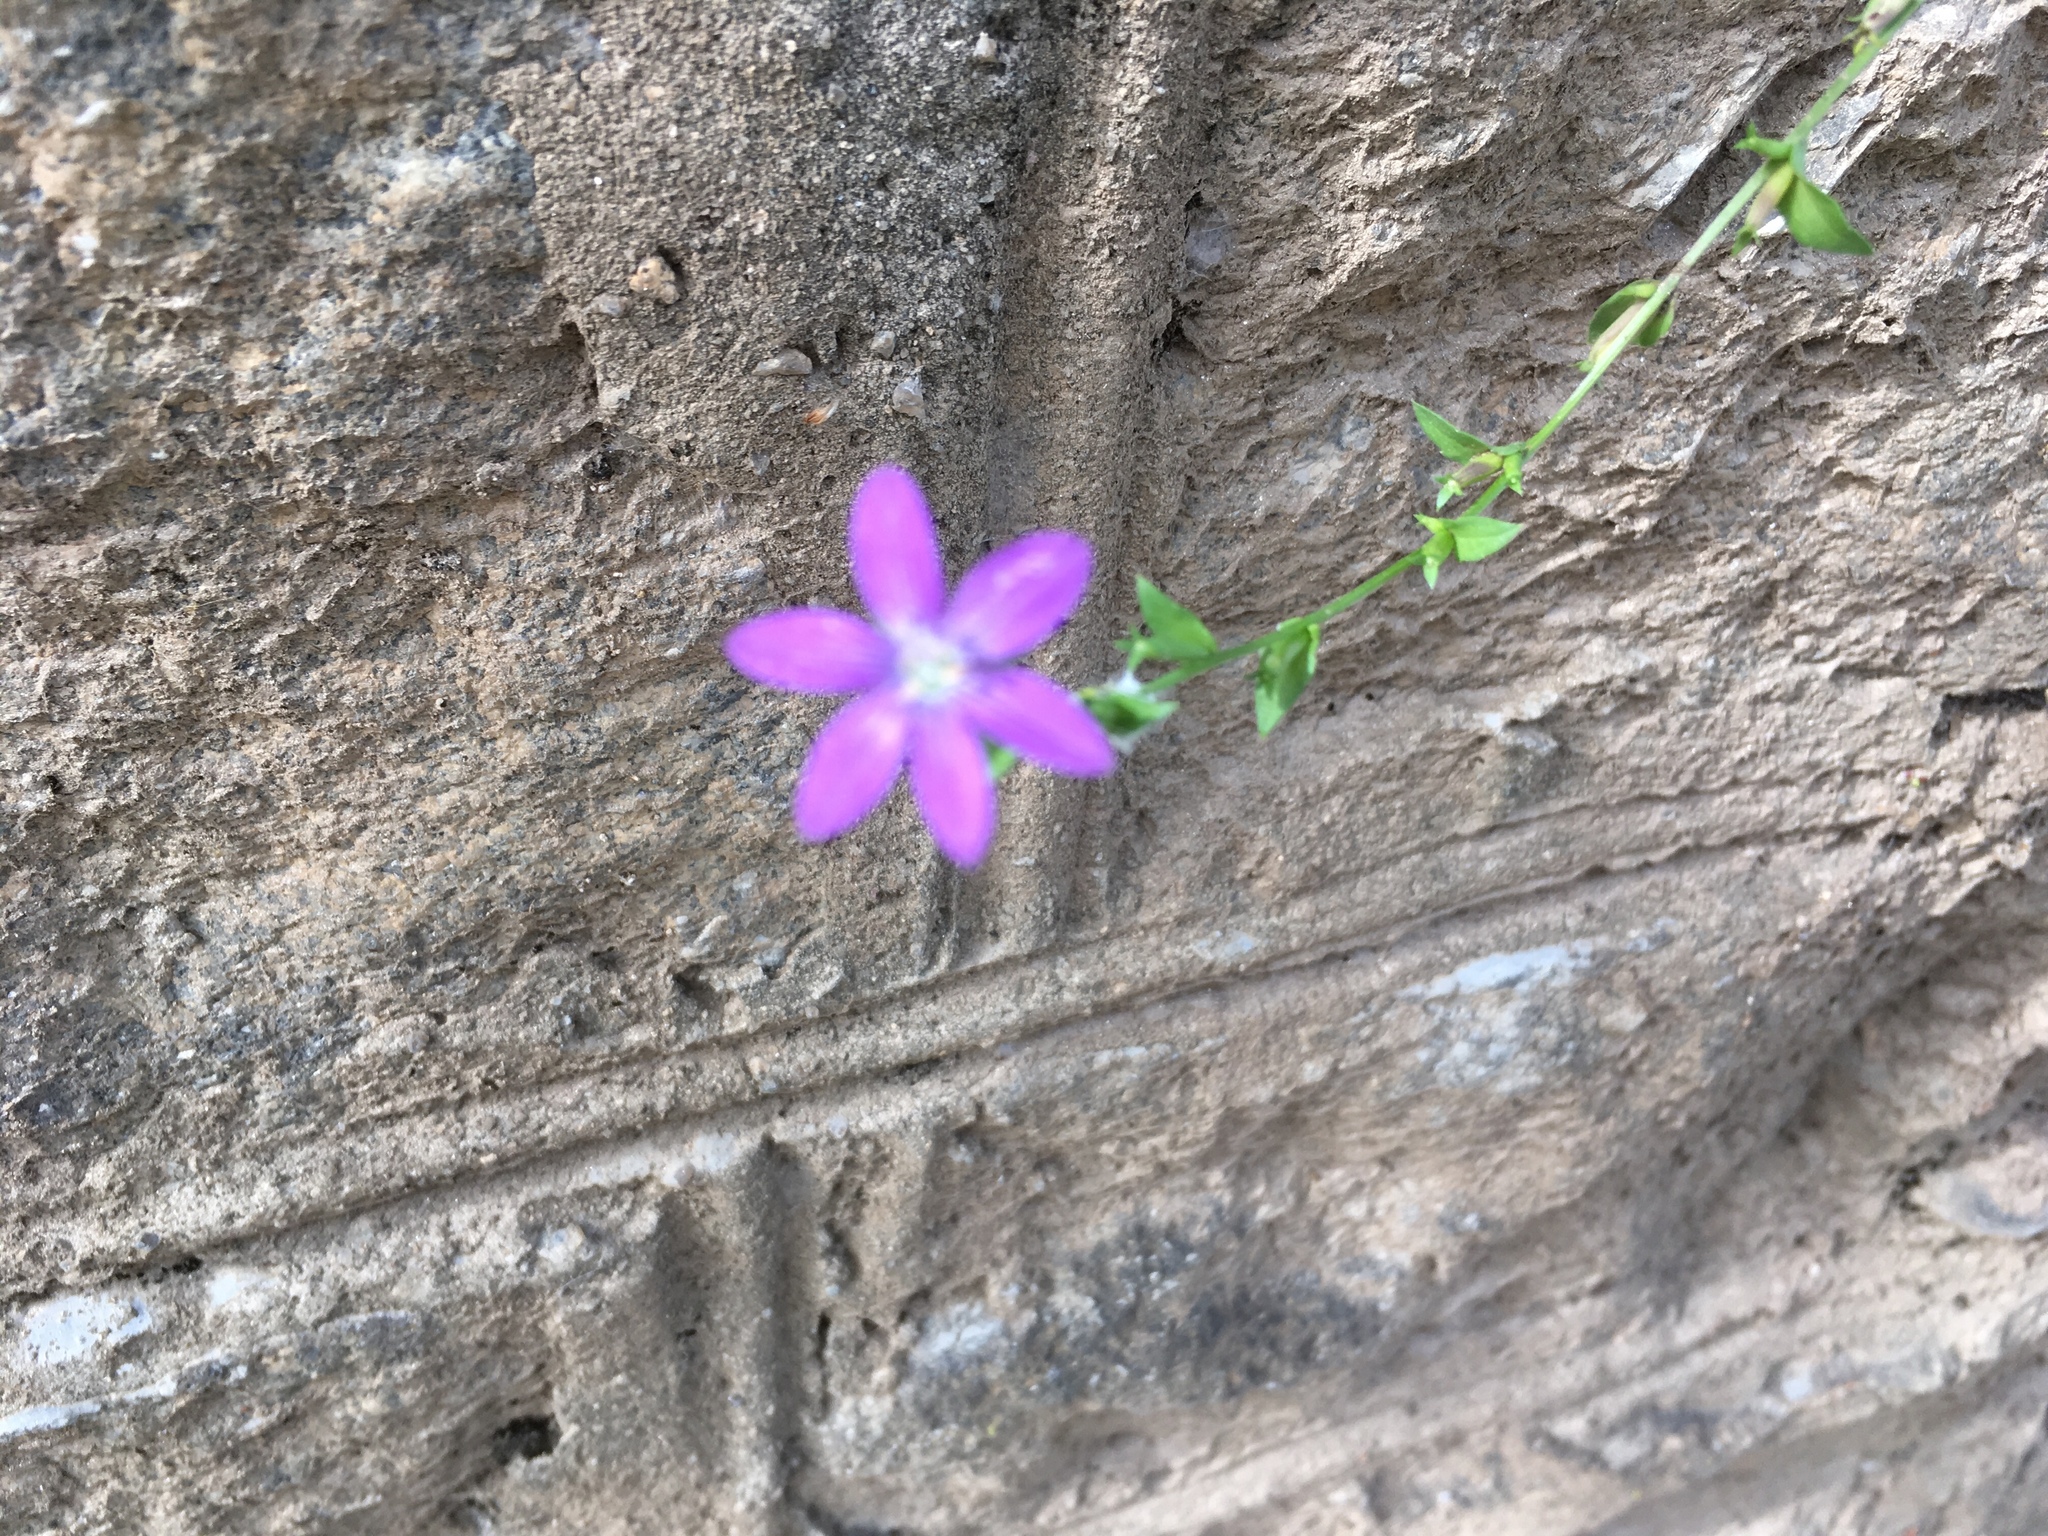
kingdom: Plantae
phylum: Tracheophyta
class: Magnoliopsida
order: Asterales
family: Campanulaceae
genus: Triodanis
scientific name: Triodanis biflora
